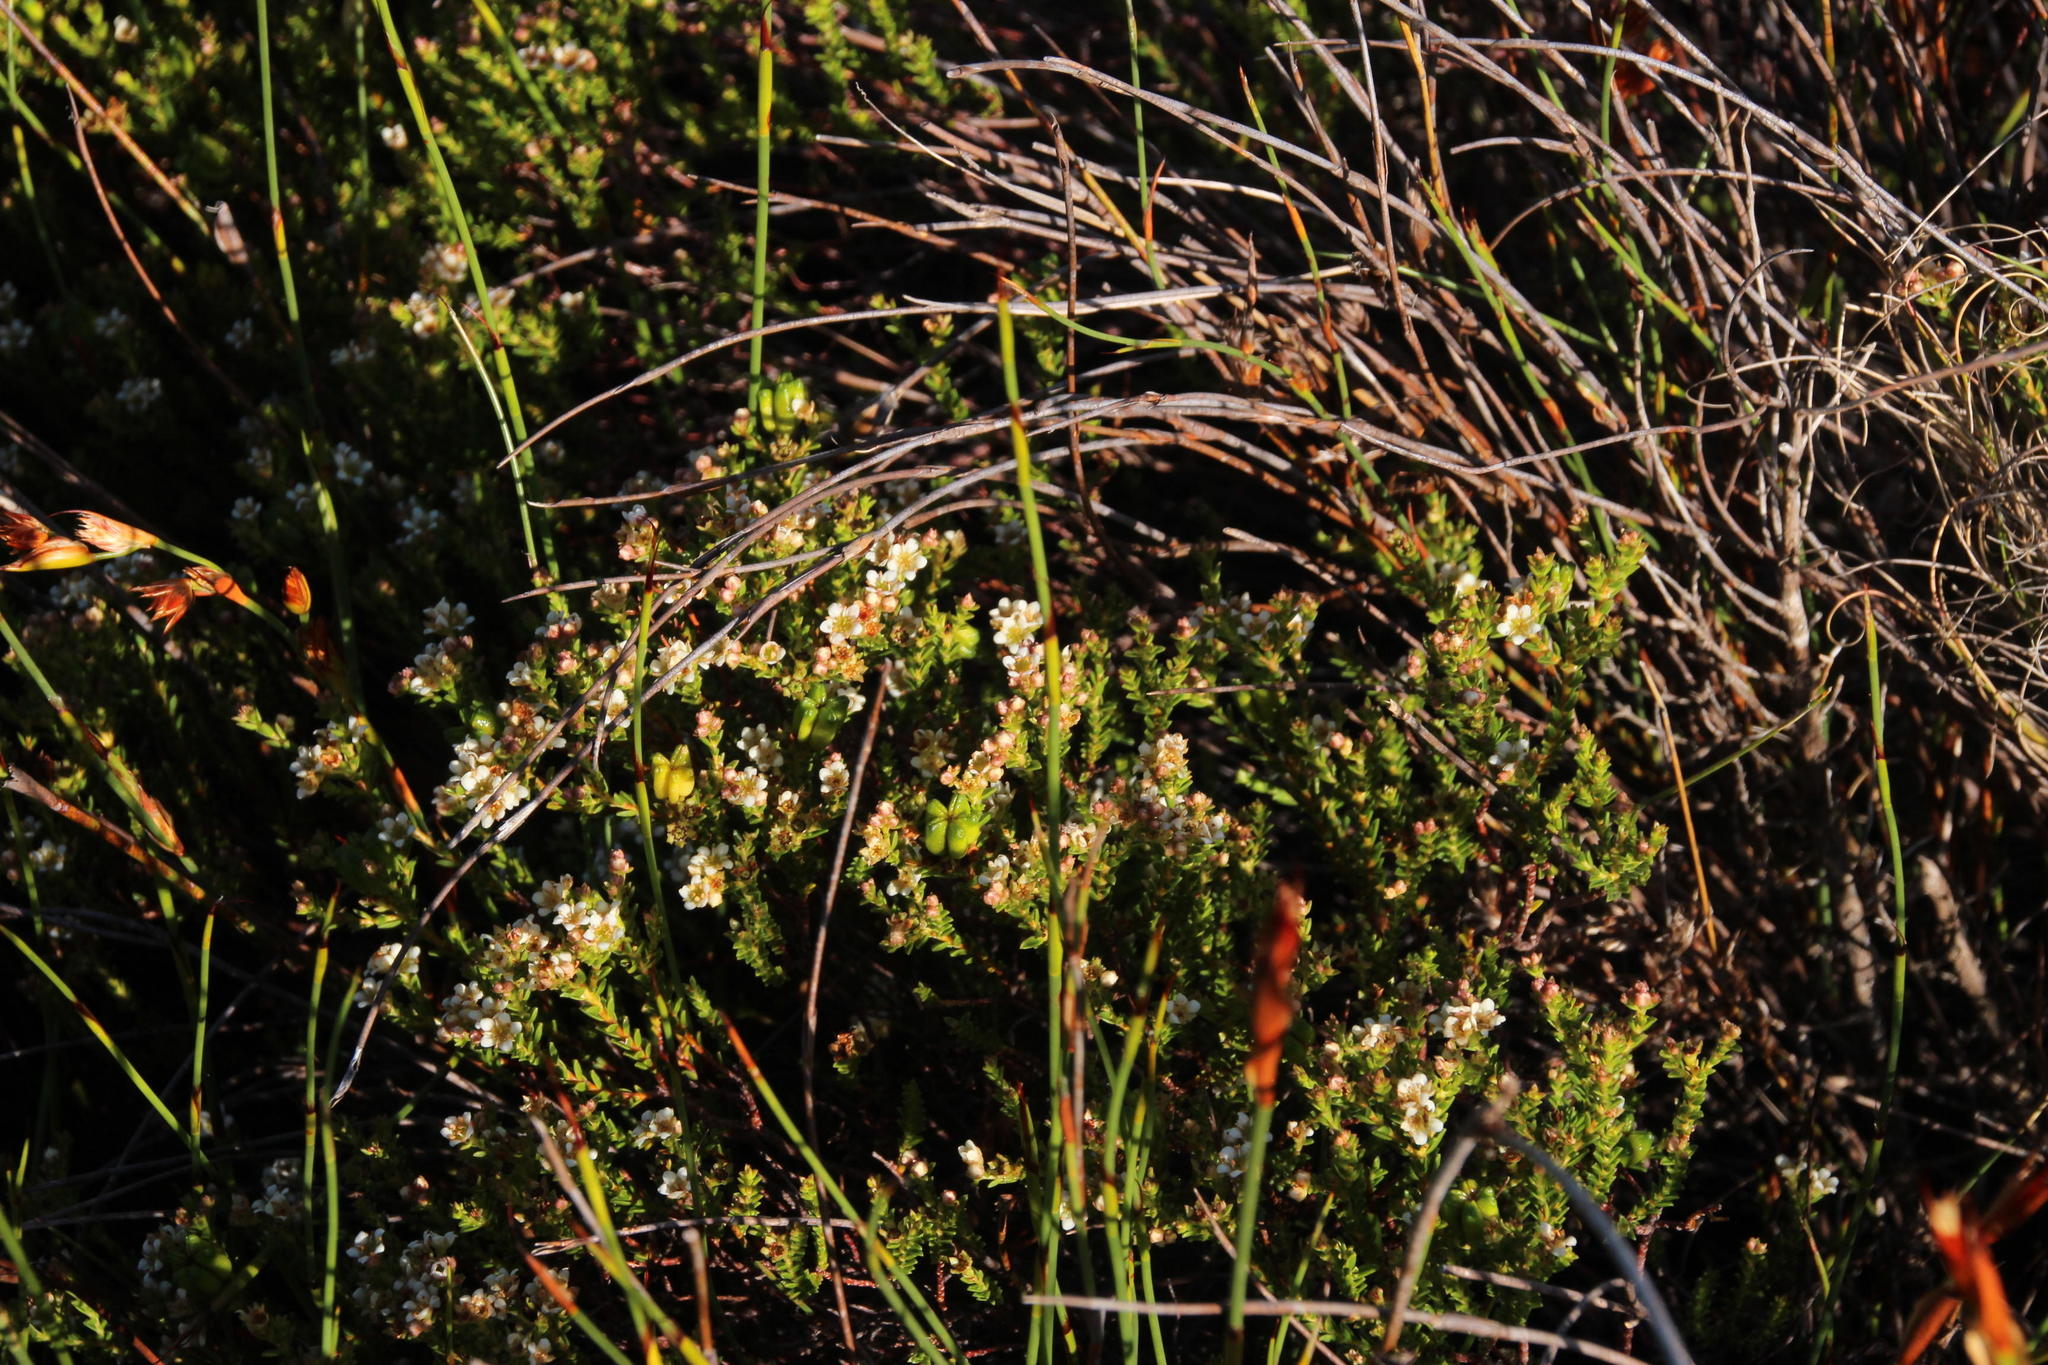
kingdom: Plantae
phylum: Tracheophyta
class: Magnoliopsida
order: Sapindales
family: Rutaceae
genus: Diosma
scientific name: Diosma oppositifolia
